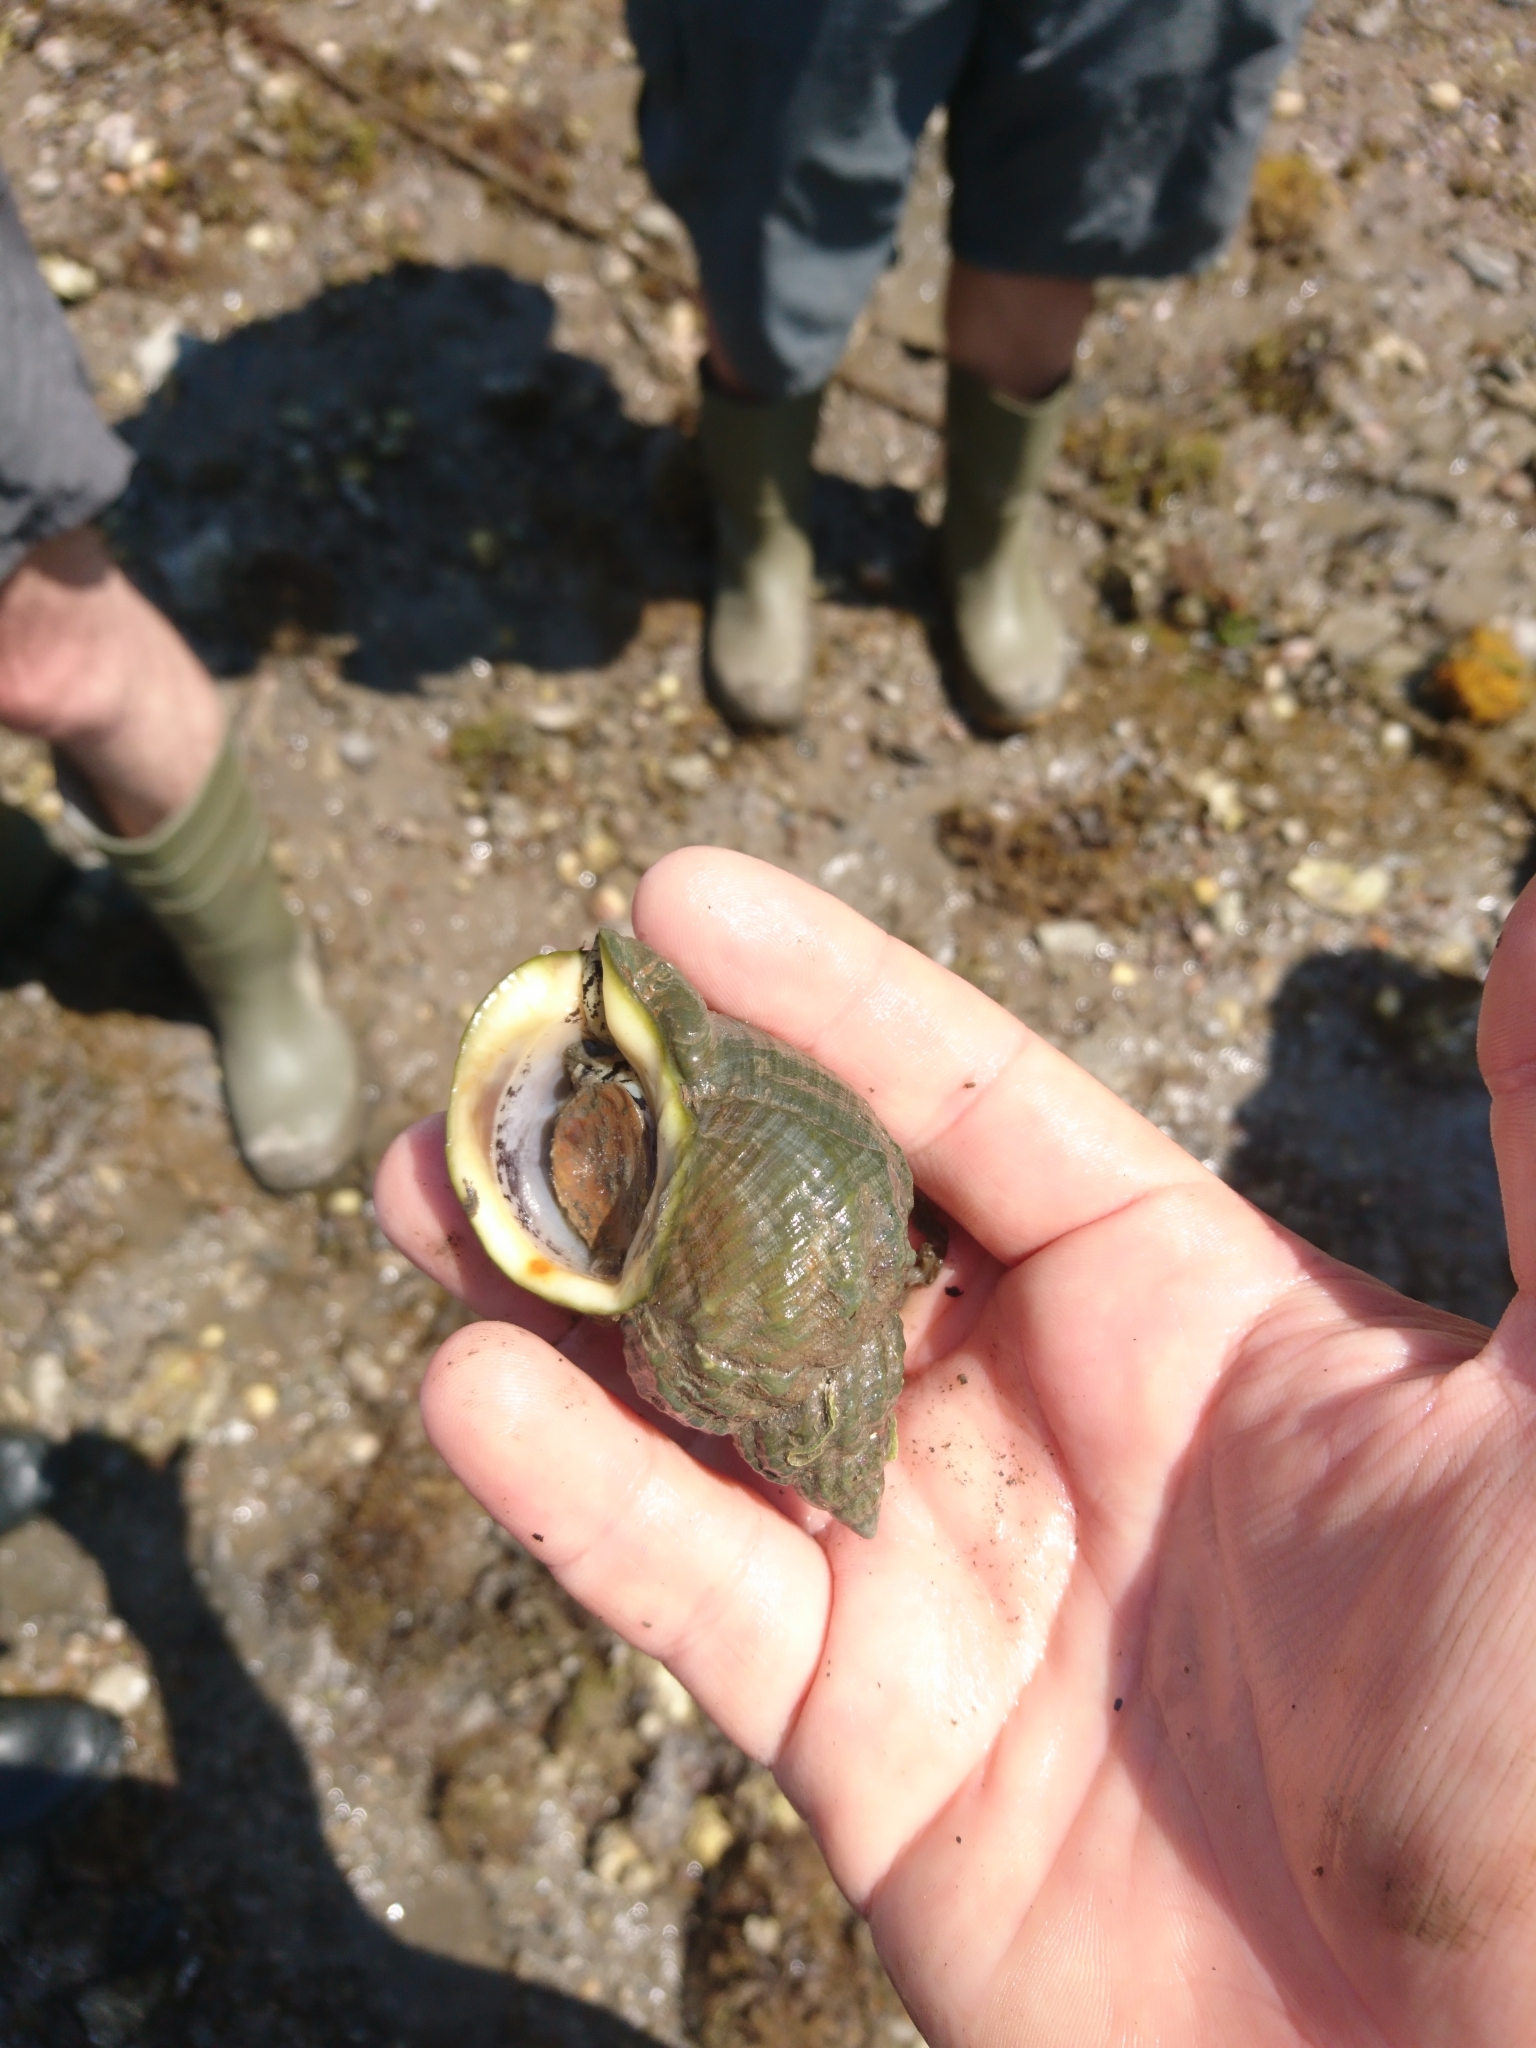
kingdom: Animalia
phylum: Mollusca
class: Gastropoda
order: Neogastropoda
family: Buccinidae
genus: Buccinum
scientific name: Buccinum undatum
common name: Common whelk
